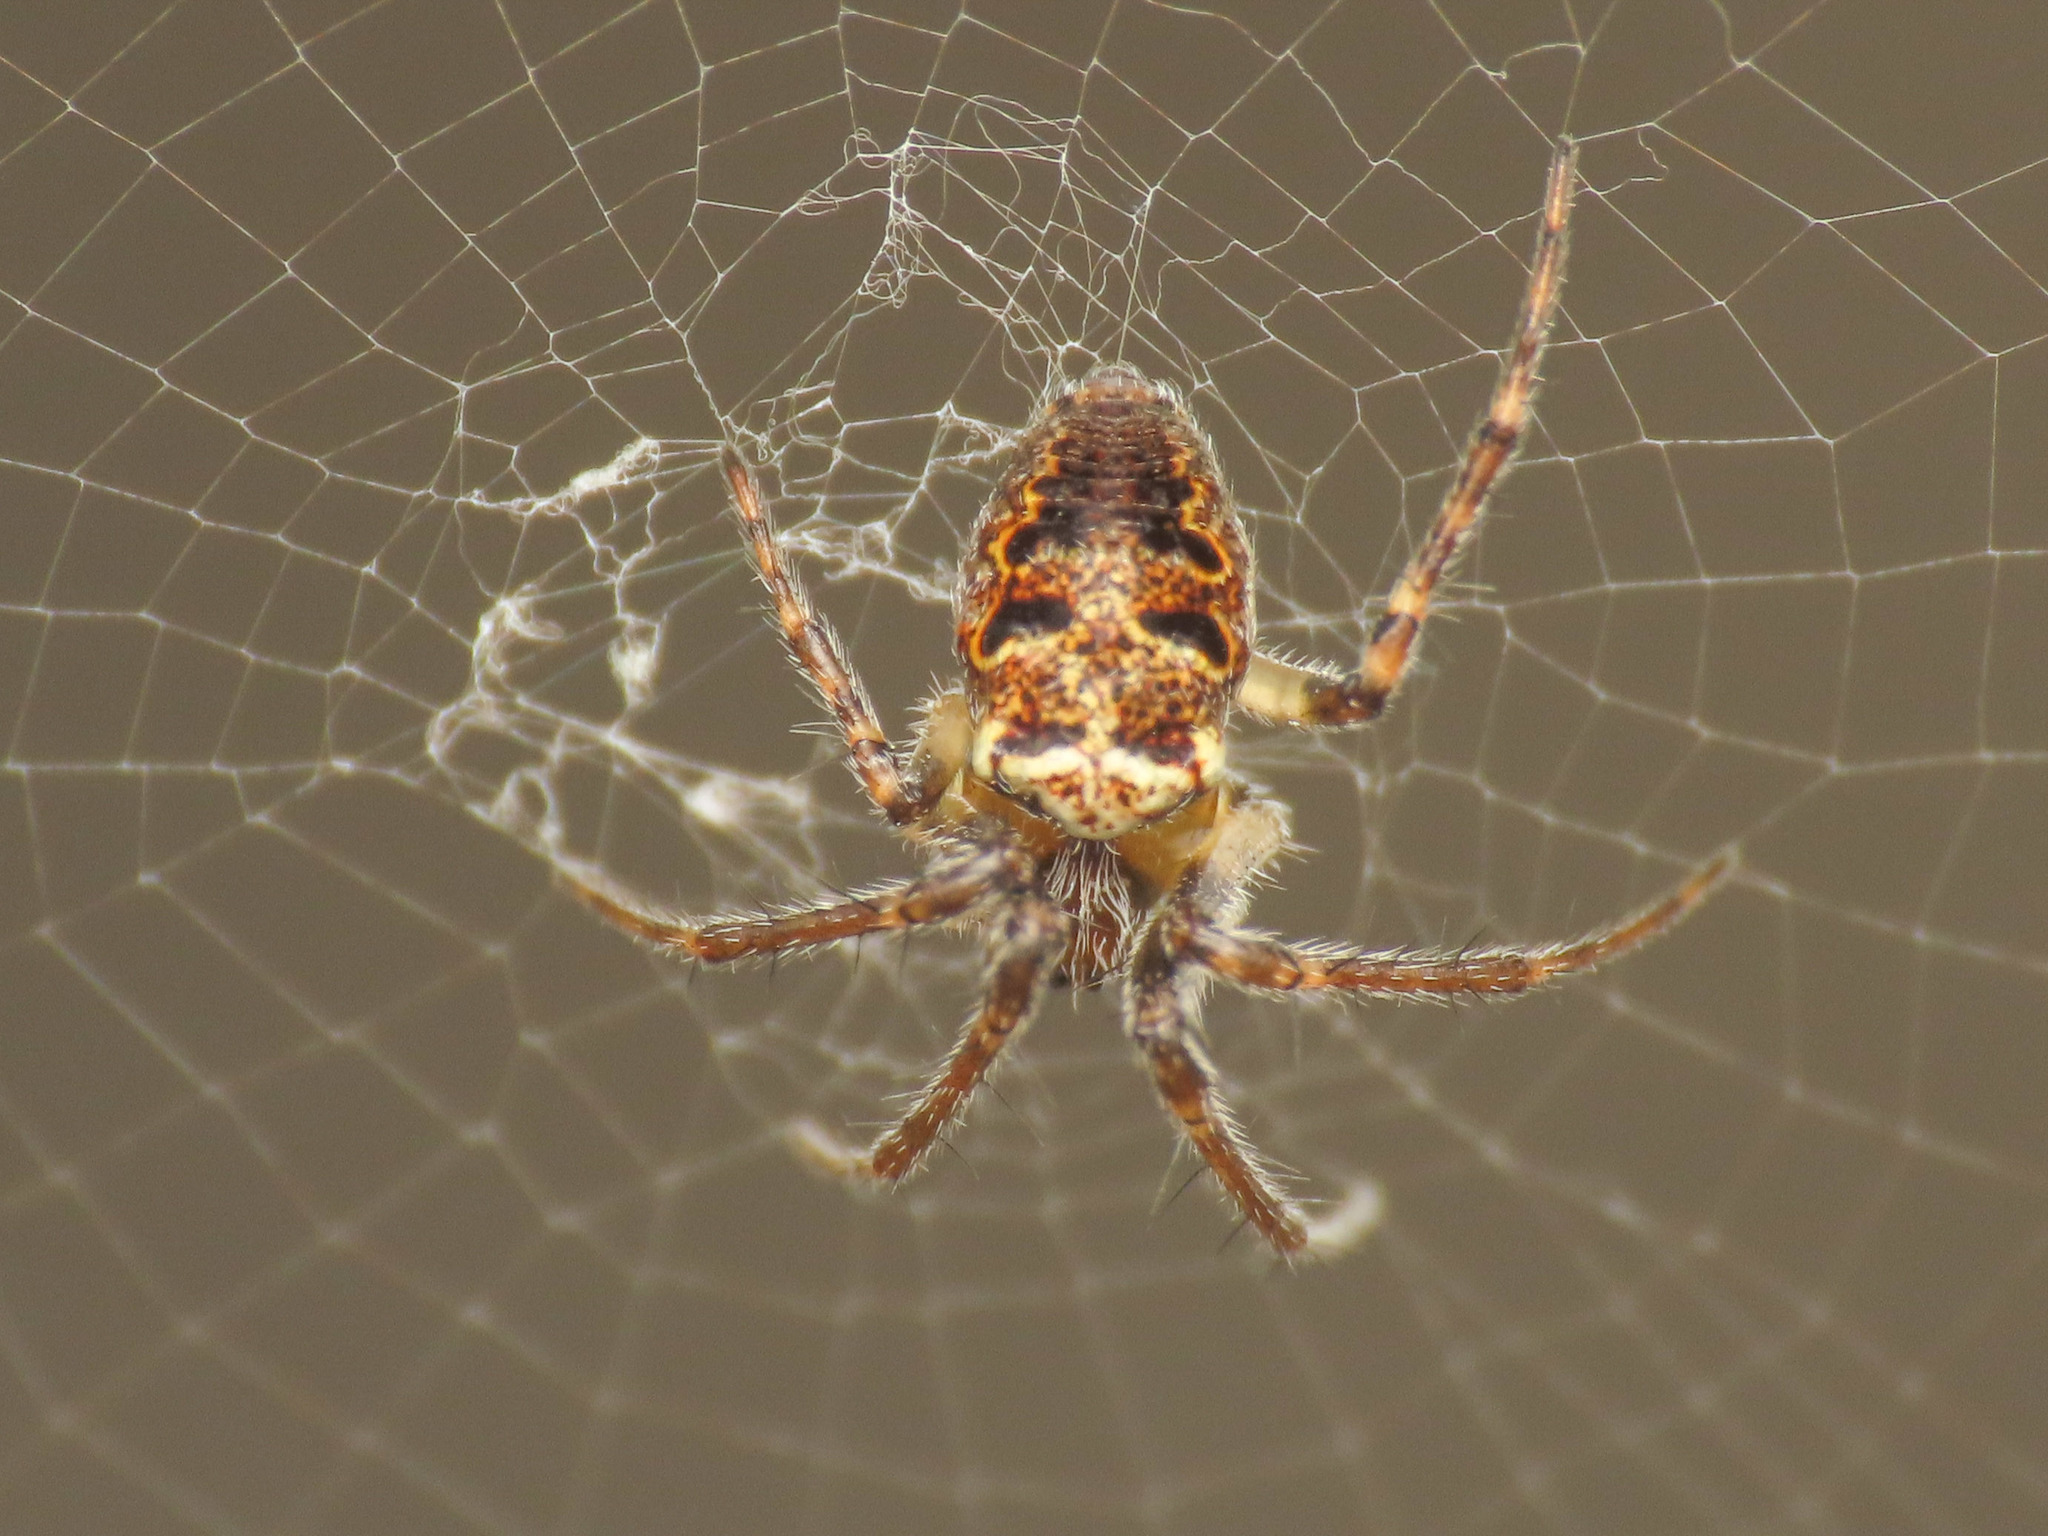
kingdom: Animalia
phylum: Arthropoda
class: Arachnida
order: Araneae
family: Araneidae
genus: Zilla
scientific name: Zilla diodia
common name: Zilla diodia
